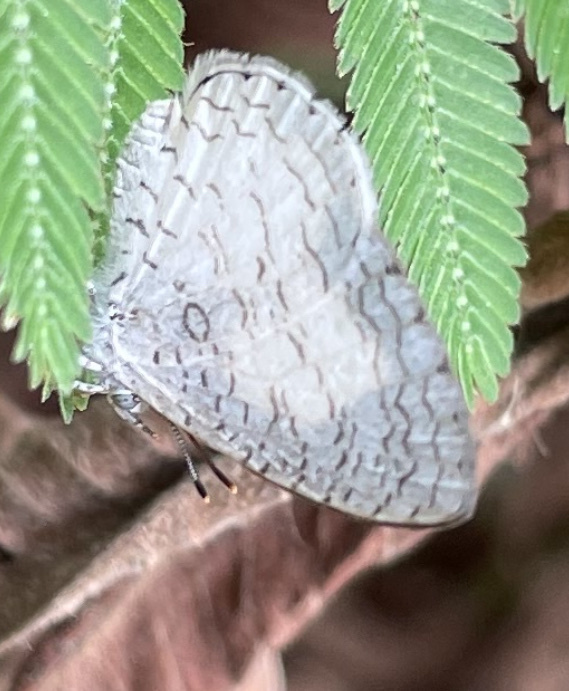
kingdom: Animalia
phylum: Arthropoda
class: Insecta
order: Lepidoptera
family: Lycaenidae
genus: Spalgis
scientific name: Spalgis lemolea
